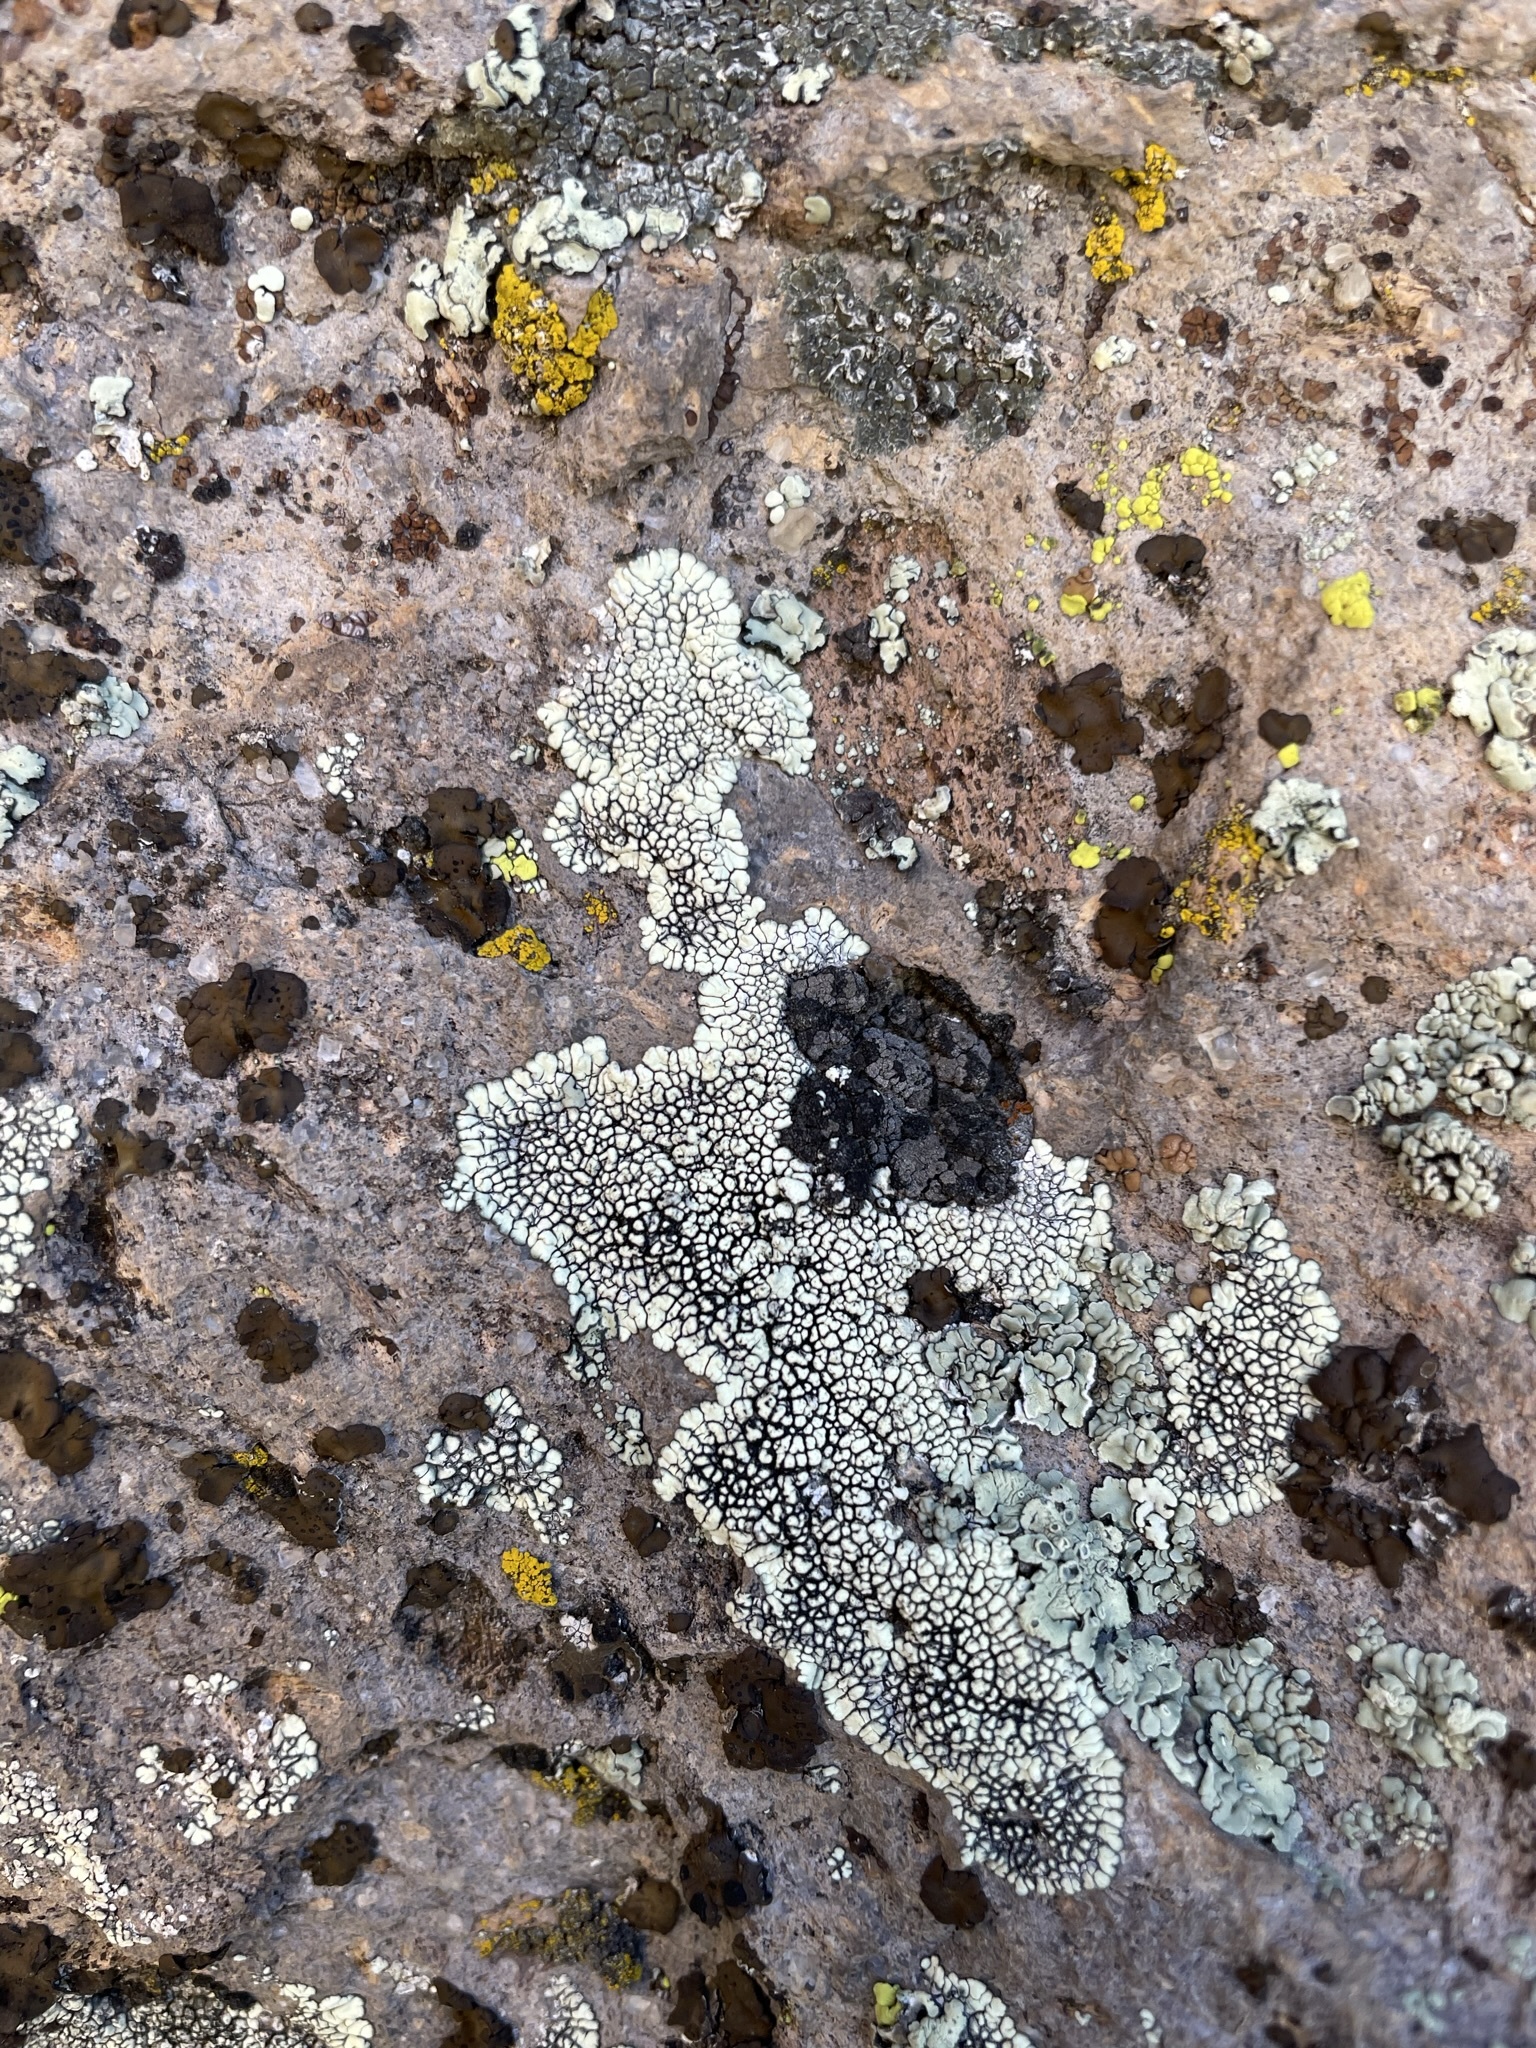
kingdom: Fungi
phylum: Ascomycota
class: Lecanoromycetes
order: Caliciales
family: Caliciaceae
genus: Dimelaena
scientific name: Dimelaena oreina
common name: Golden moonglow lichen
